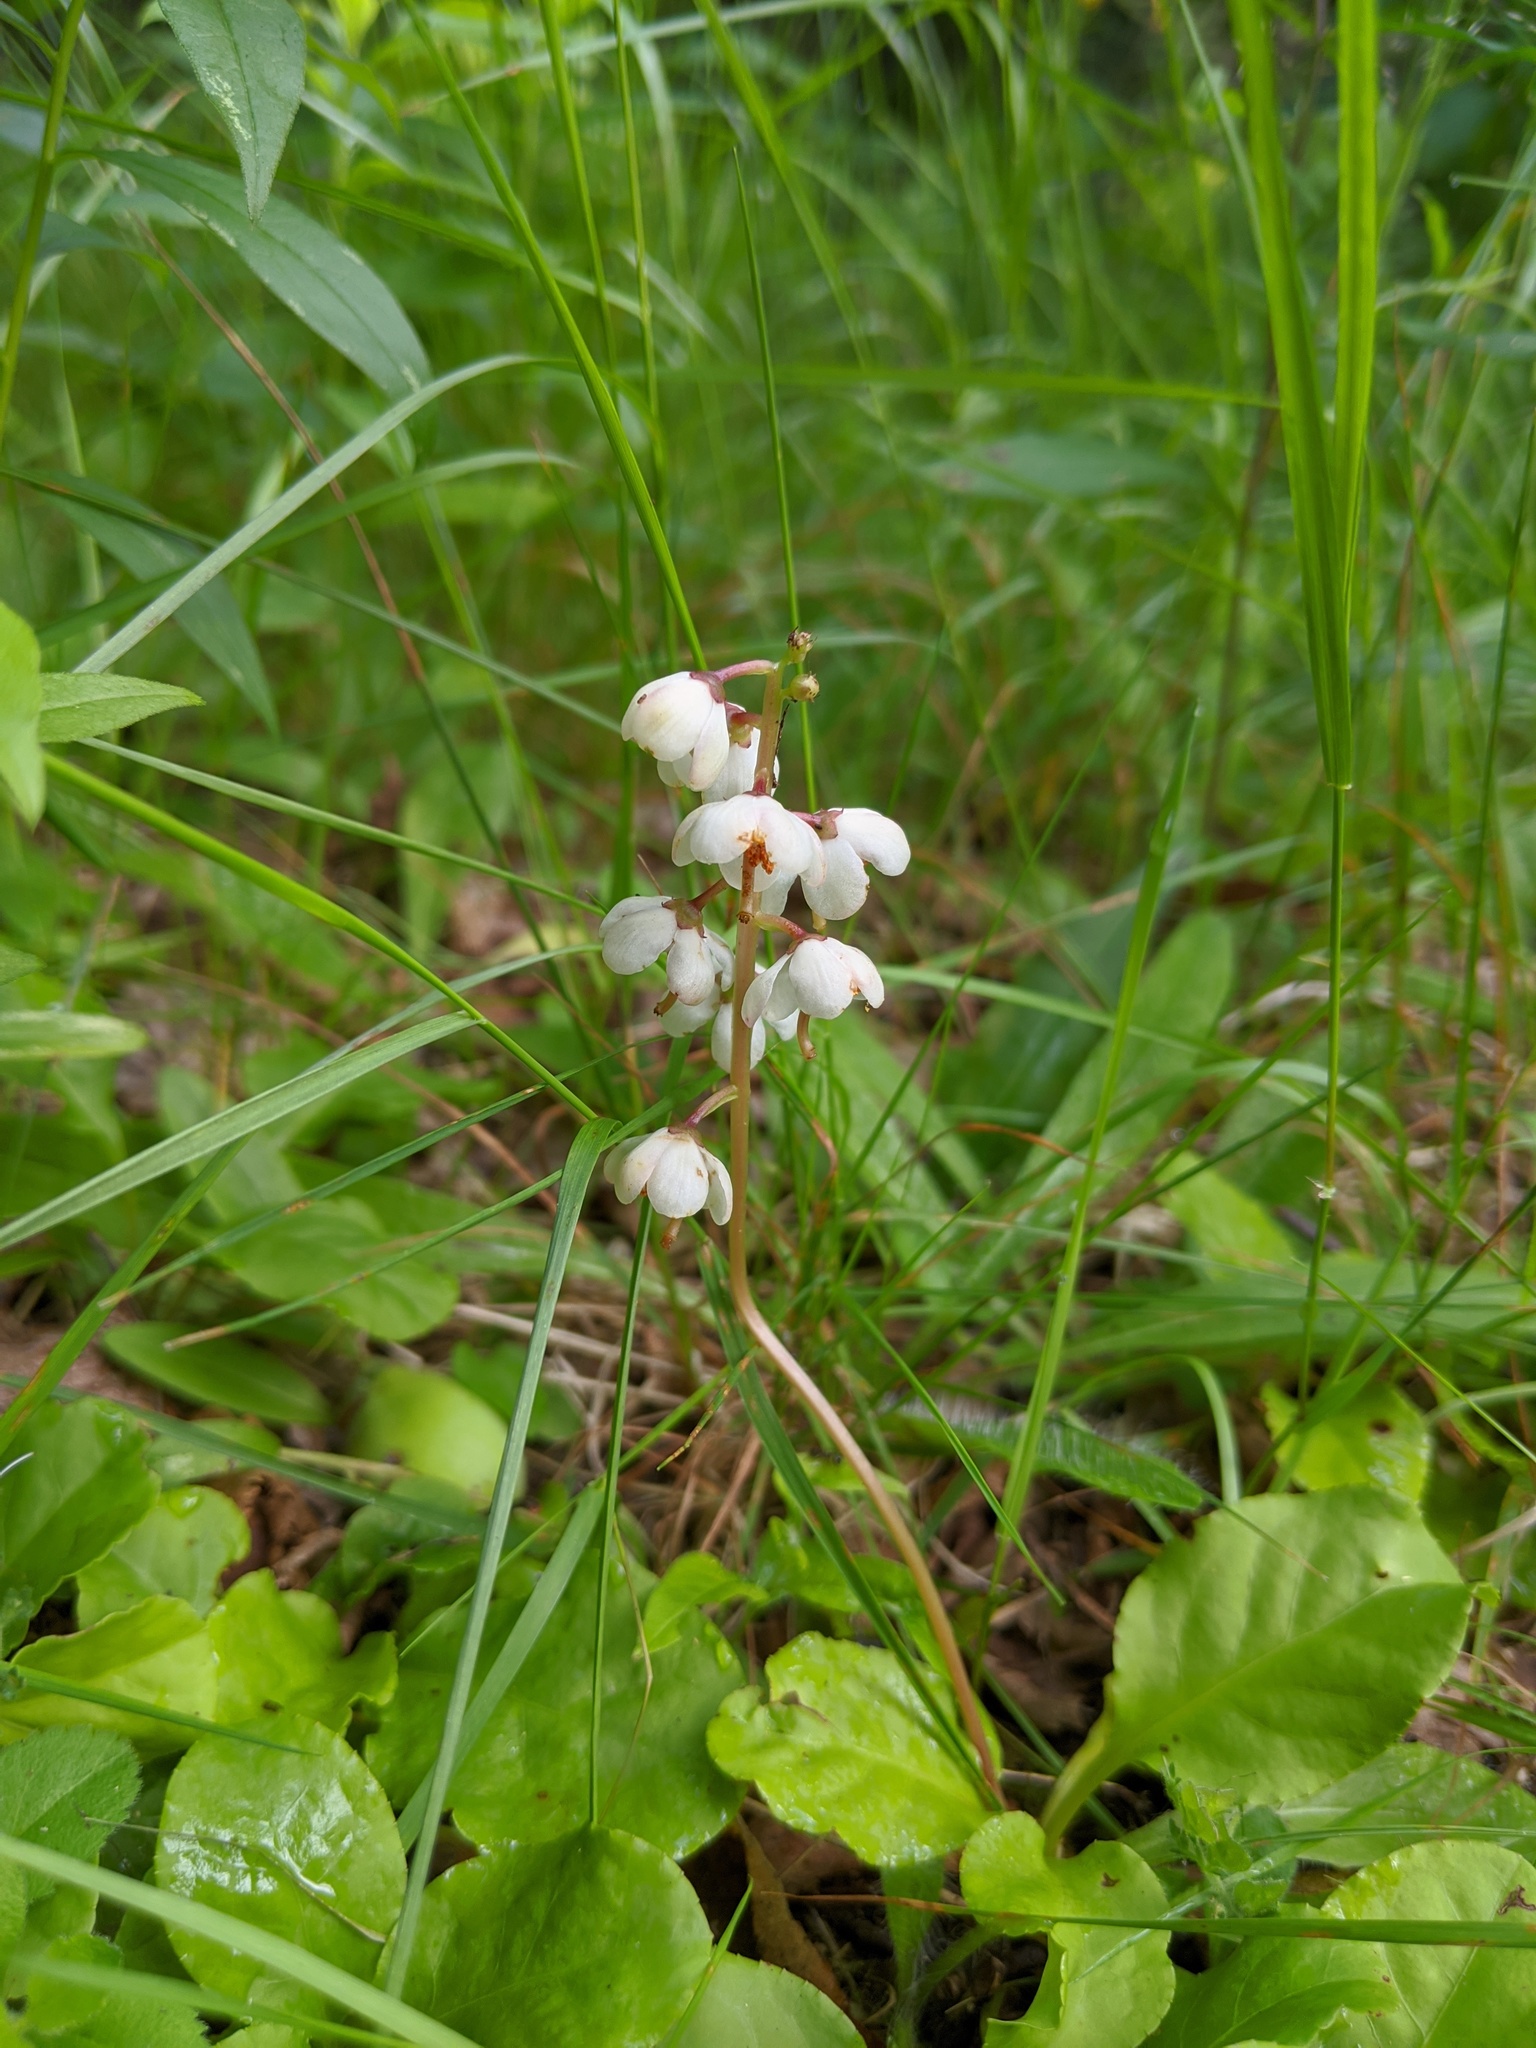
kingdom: Plantae
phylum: Tracheophyta
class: Magnoliopsida
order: Ericales
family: Ericaceae
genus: Pyrola
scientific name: Pyrola elliptica
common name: Shinleaf
